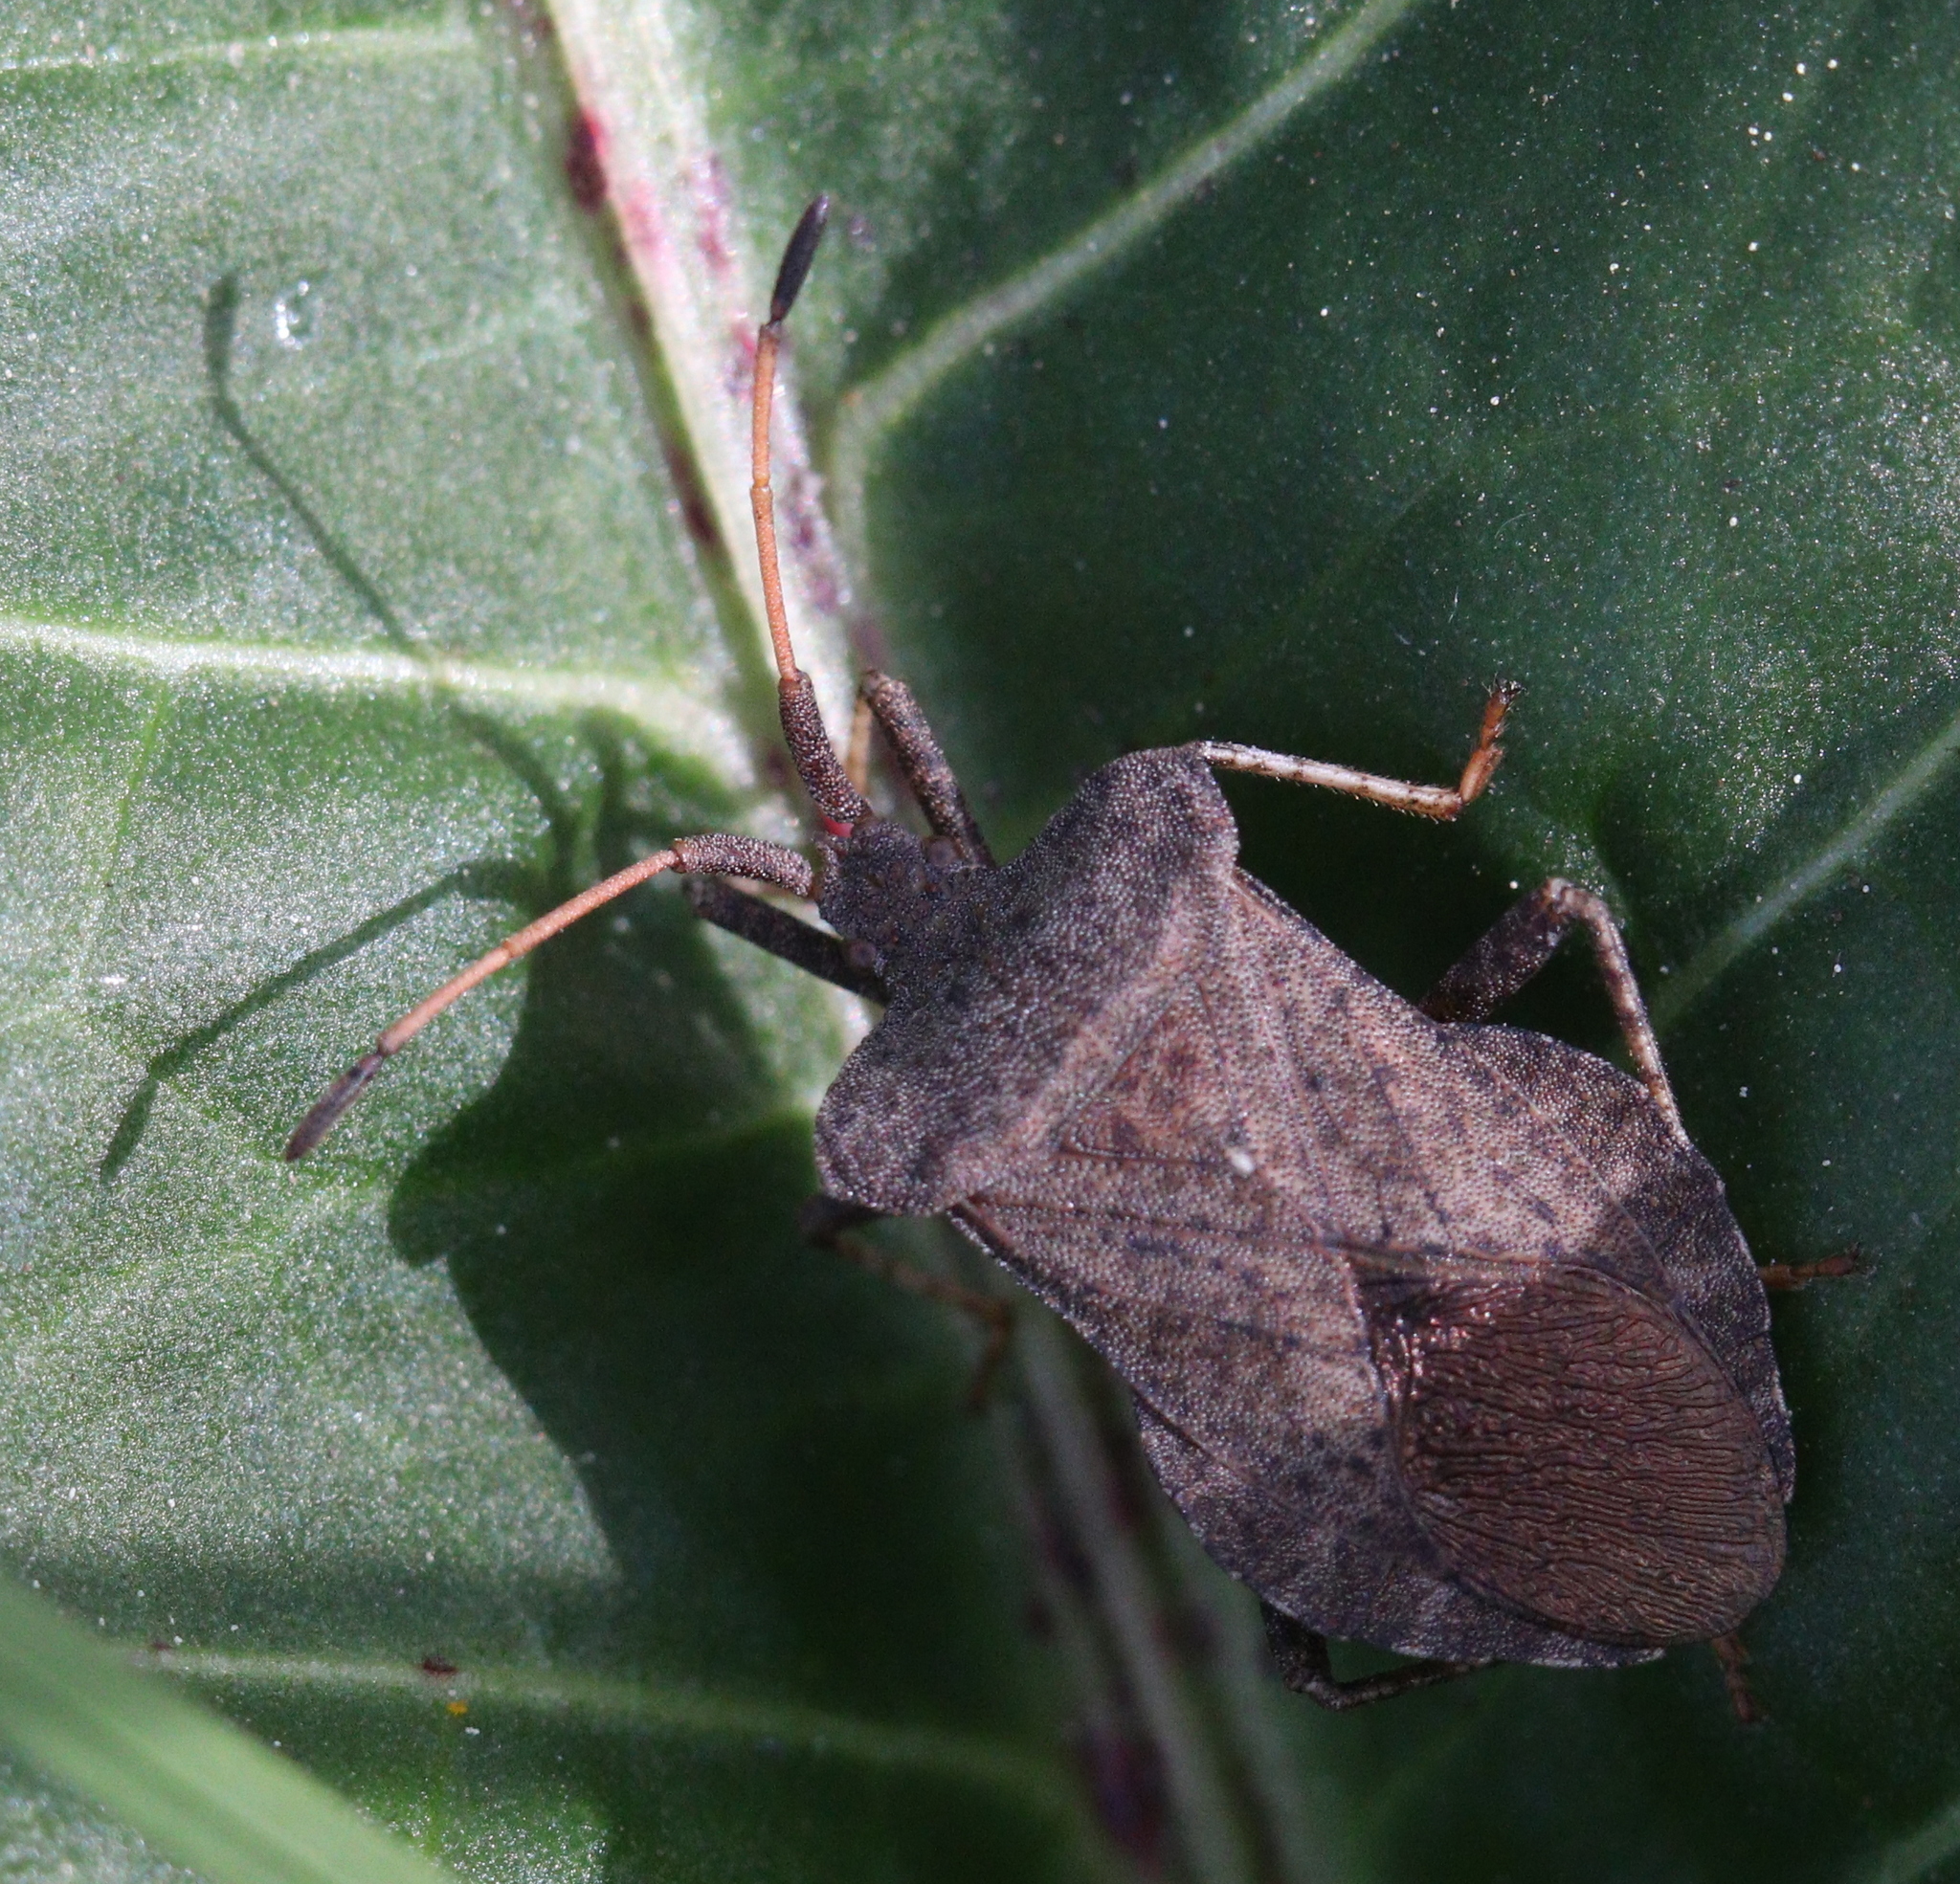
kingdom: Animalia
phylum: Arthropoda
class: Insecta
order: Hemiptera
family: Coreidae
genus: Coreus
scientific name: Coreus marginatus
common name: Dock bug
